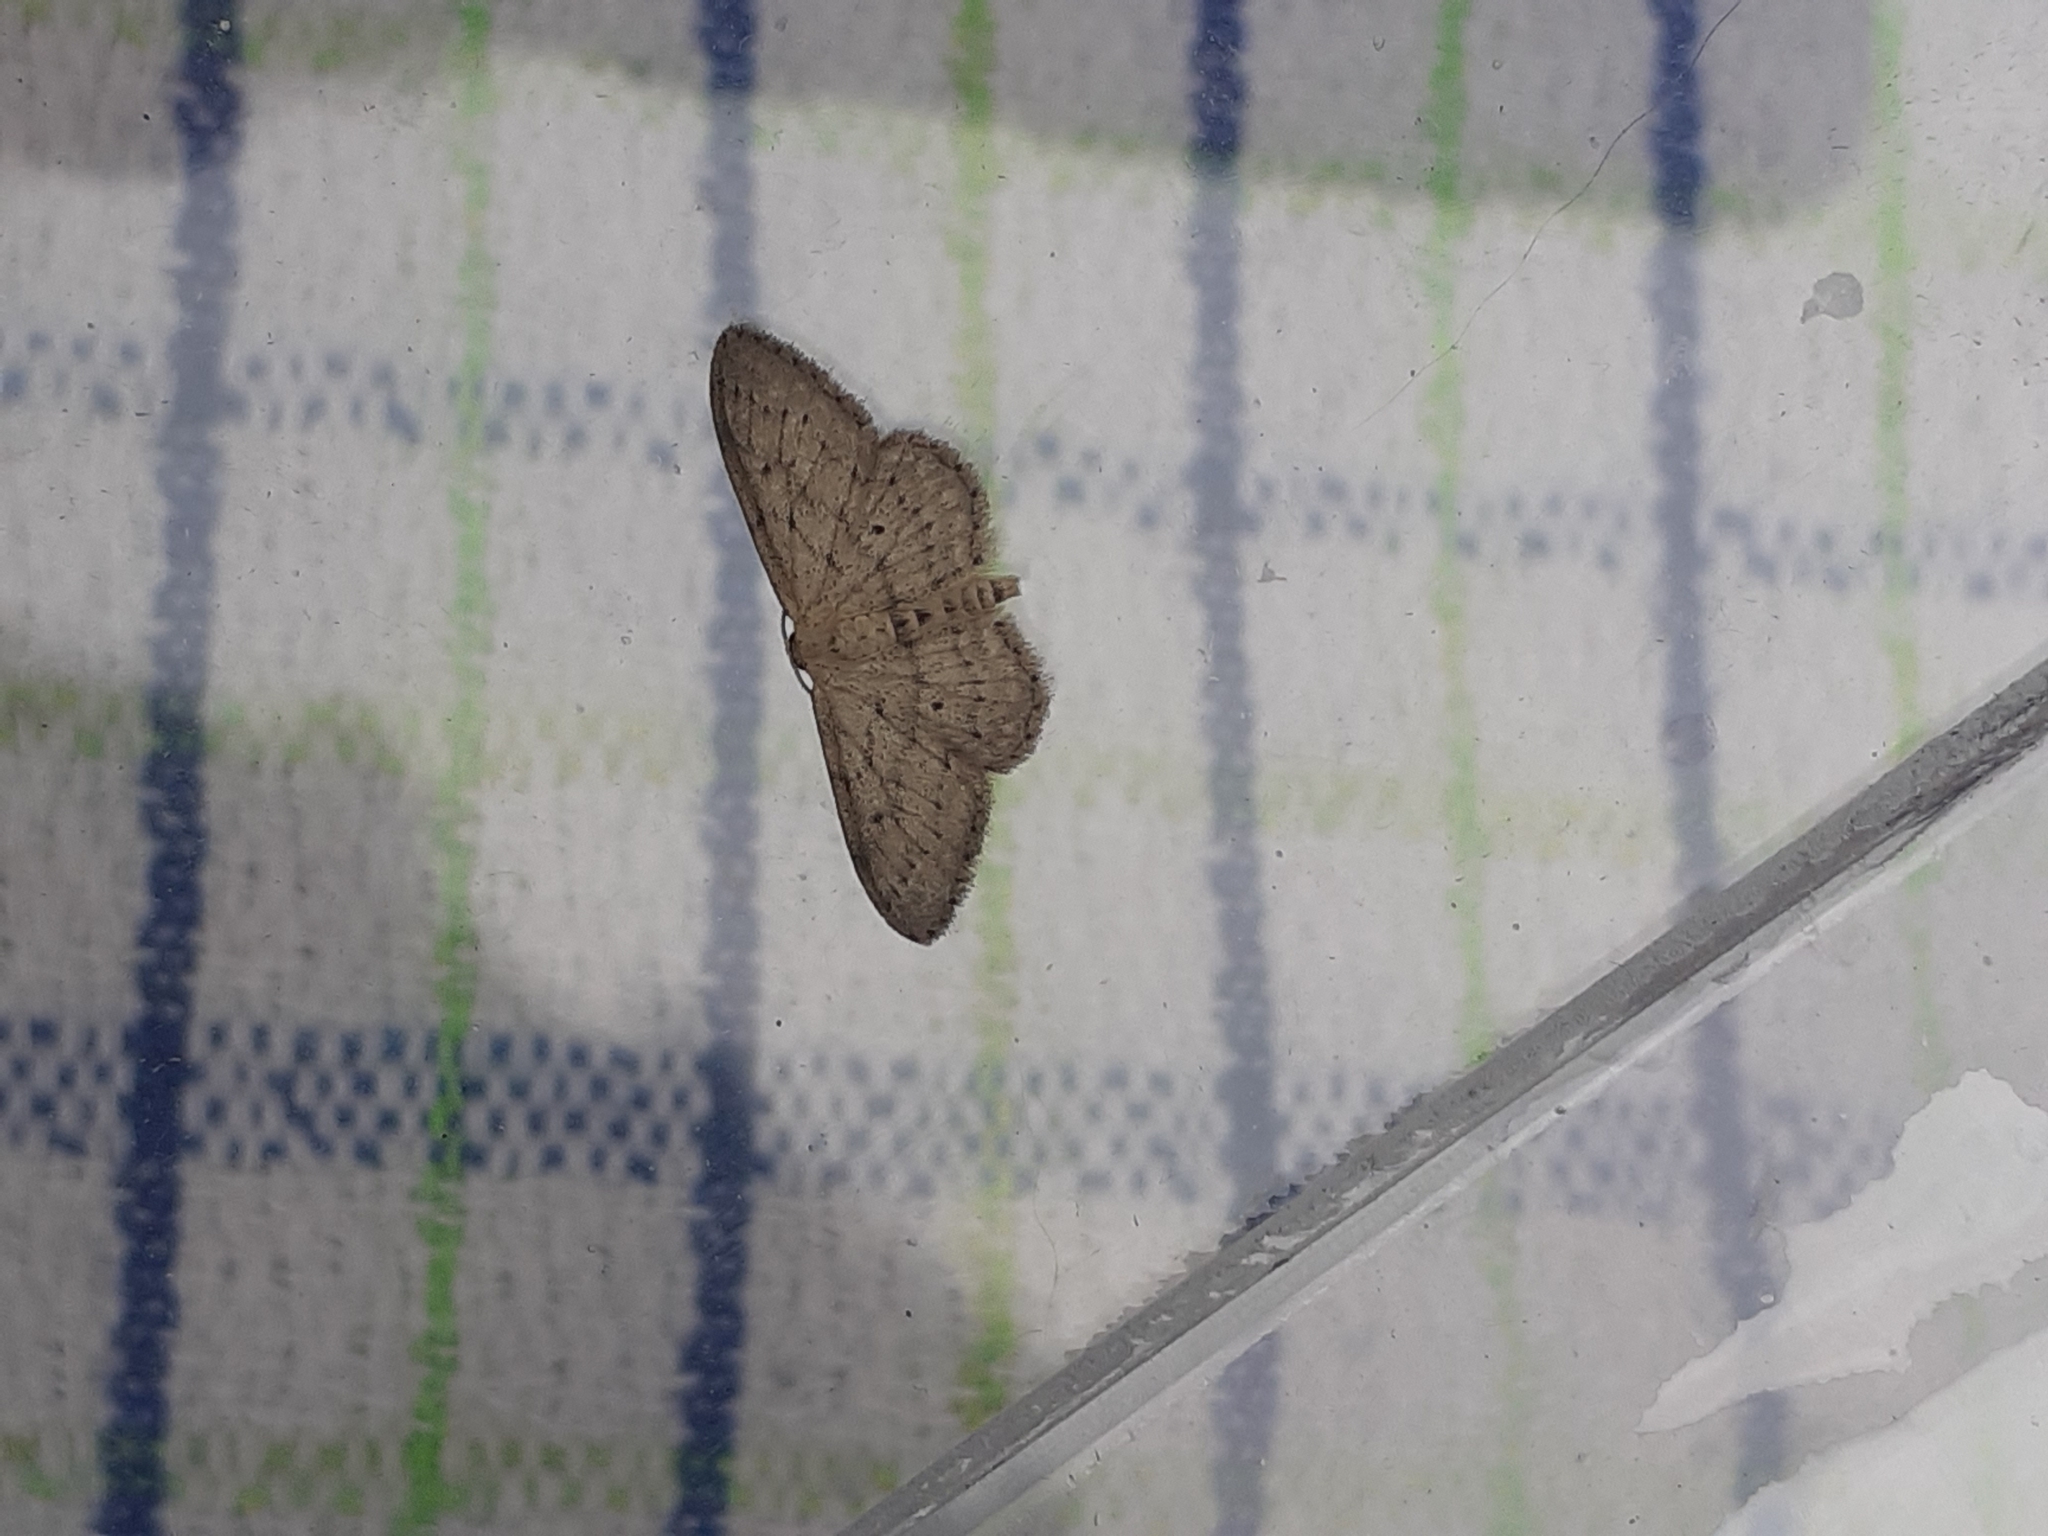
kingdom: Animalia
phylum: Arthropoda
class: Insecta
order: Lepidoptera
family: Geometridae
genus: Idaea
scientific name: Idaea straminata
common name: Plain wave
